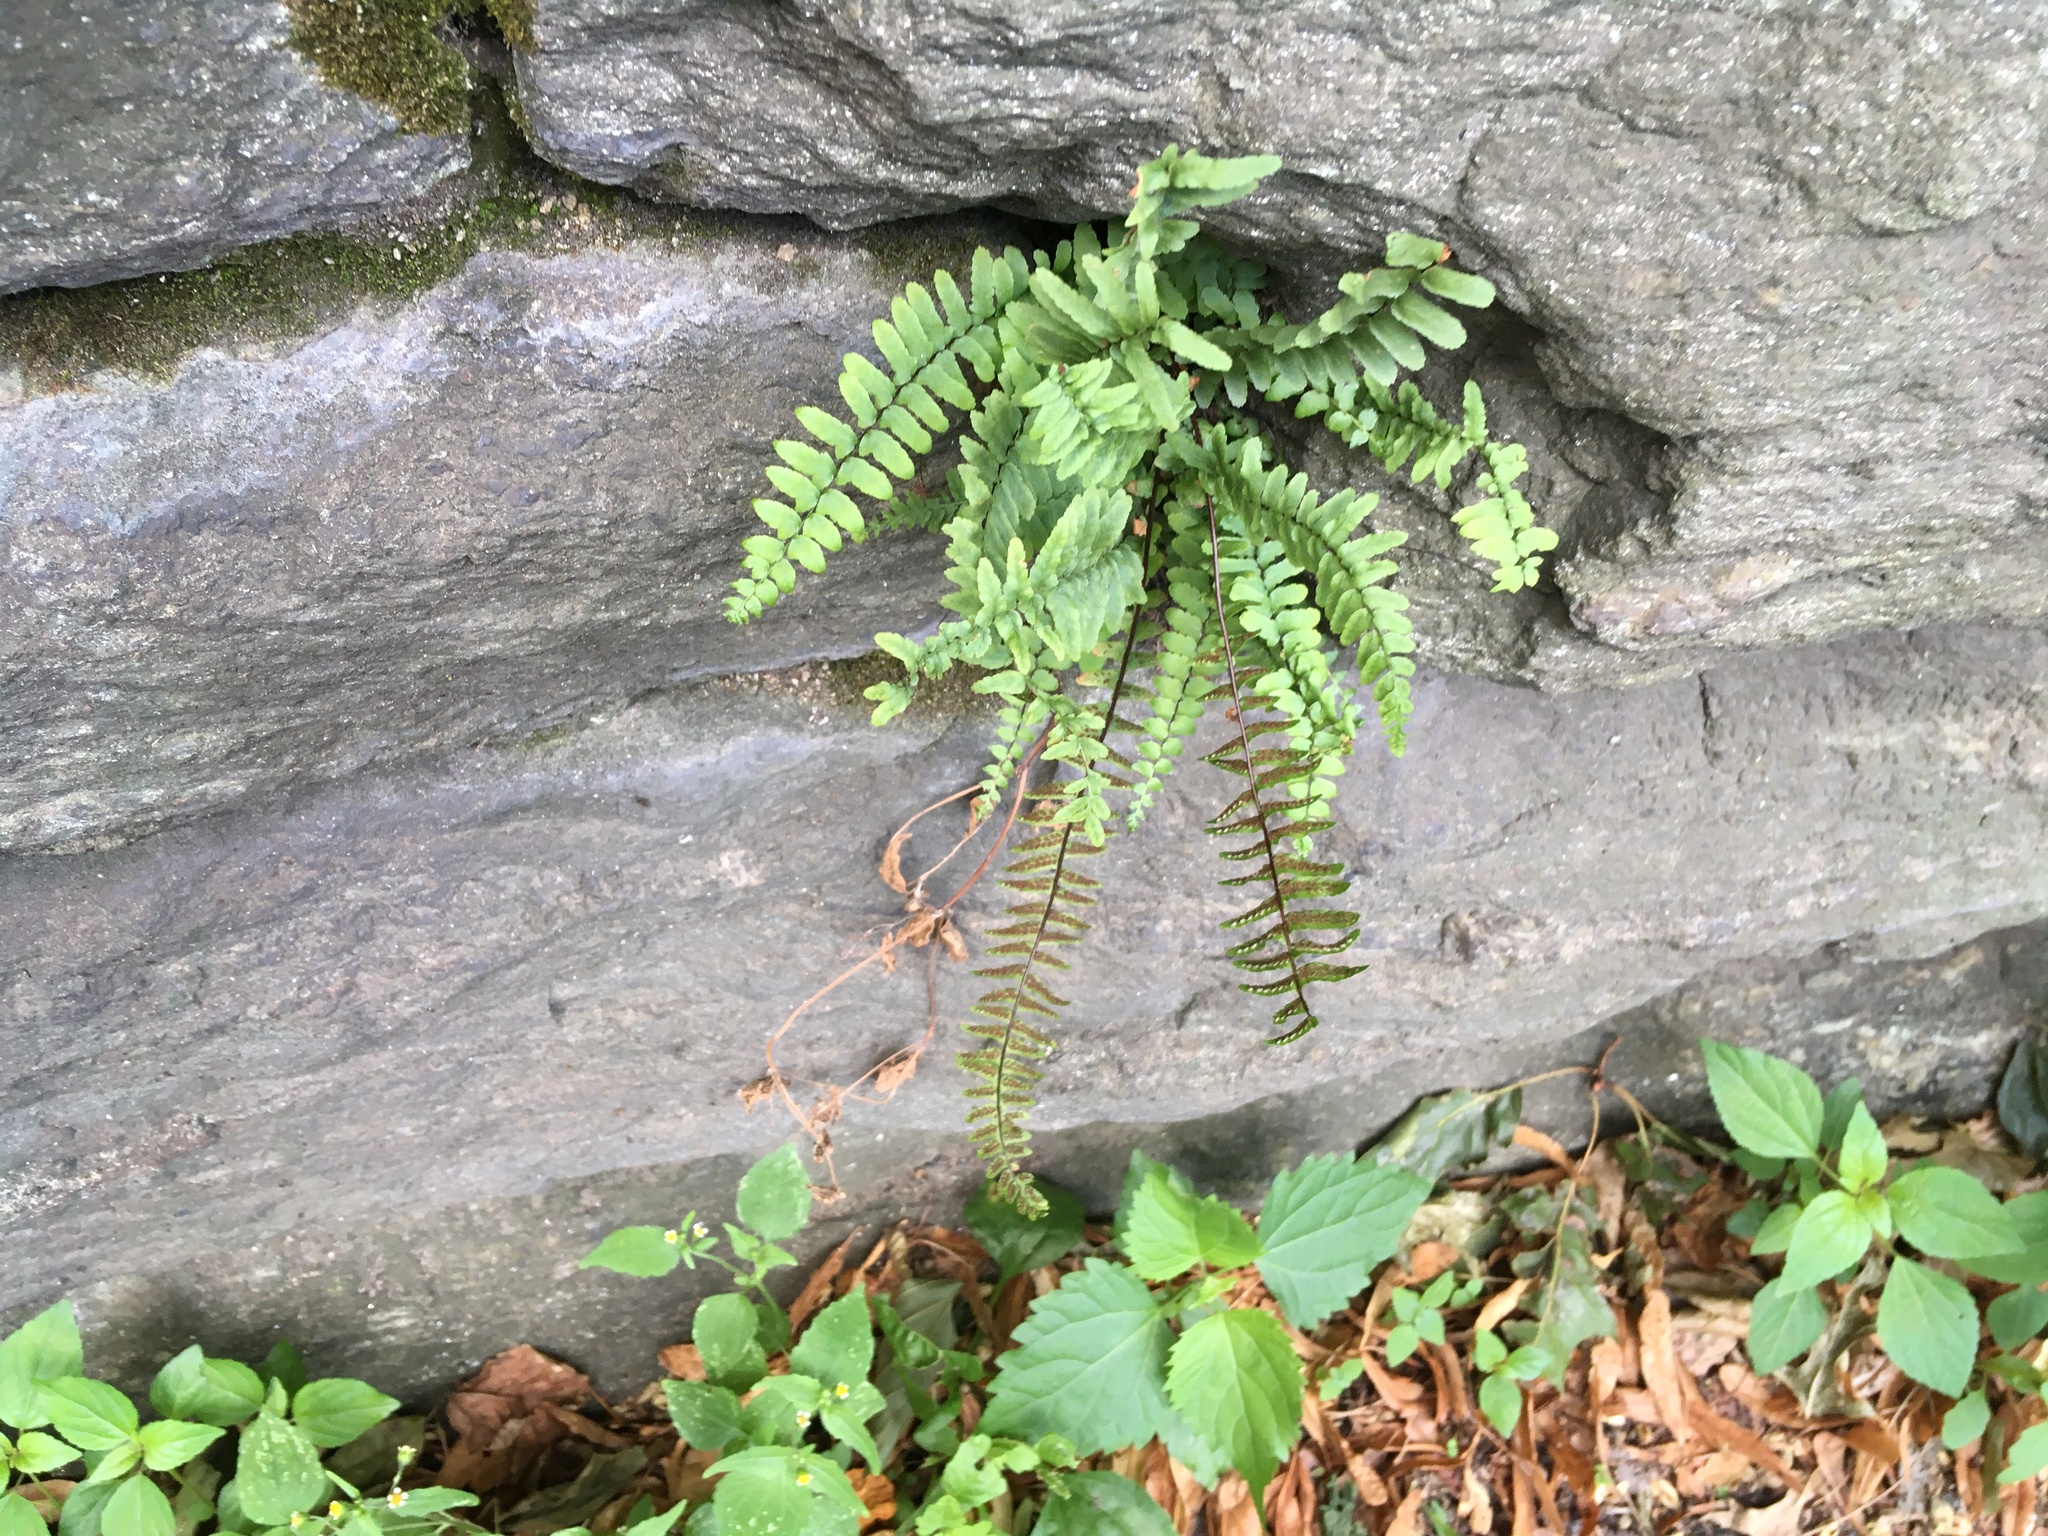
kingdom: Plantae
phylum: Tracheophyta
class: Polypodiopsida
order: Polypodiales
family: Aspleniaceae
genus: Asplenium
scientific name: Asplenium platyneuron
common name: Ebony spleenwort
